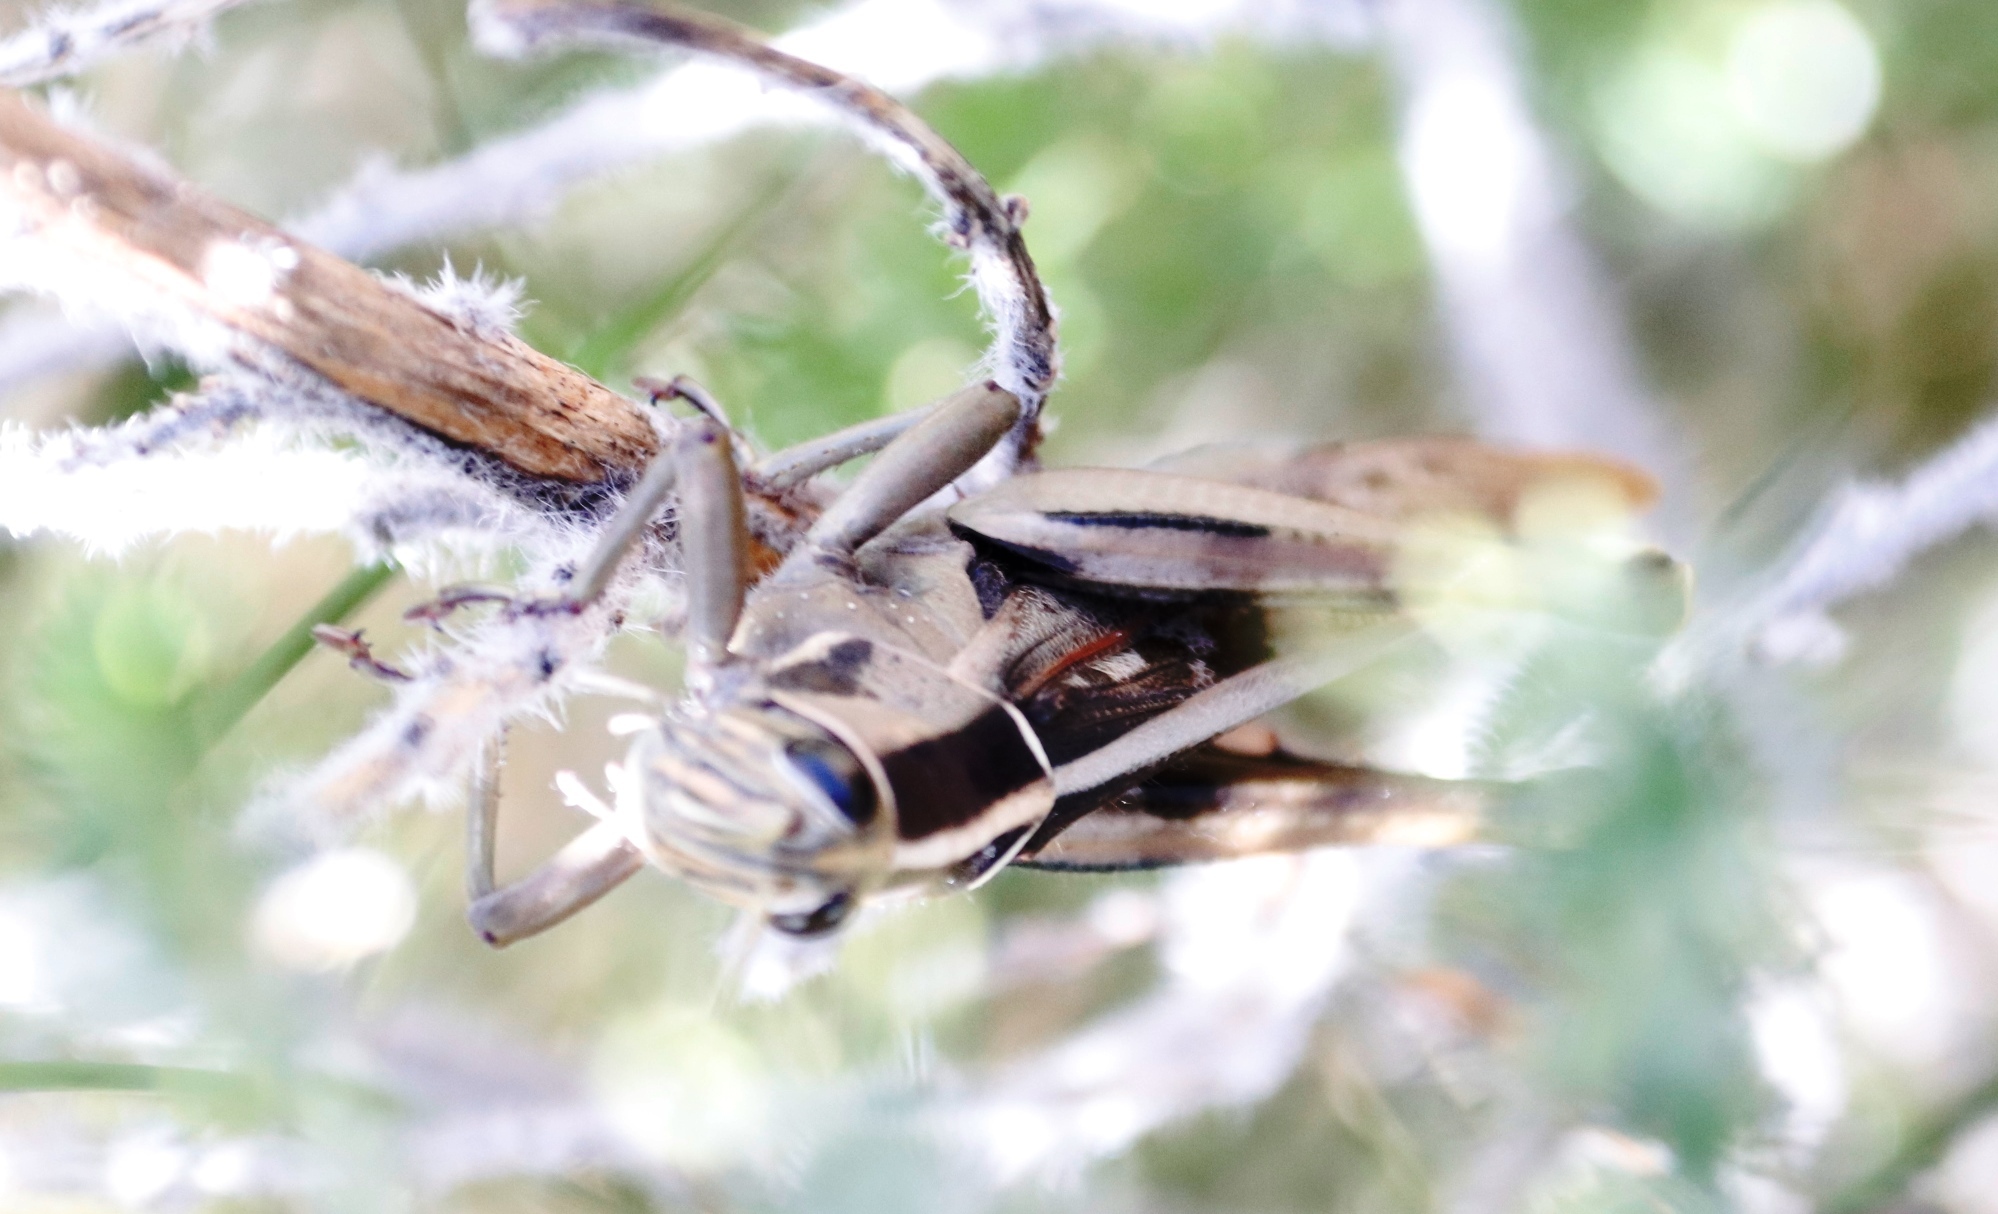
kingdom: Animalia
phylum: Arthropoda
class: Insecta
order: Orthoptera
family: Acrididae
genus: Acanthacris
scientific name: Acanthacris ruficornis
